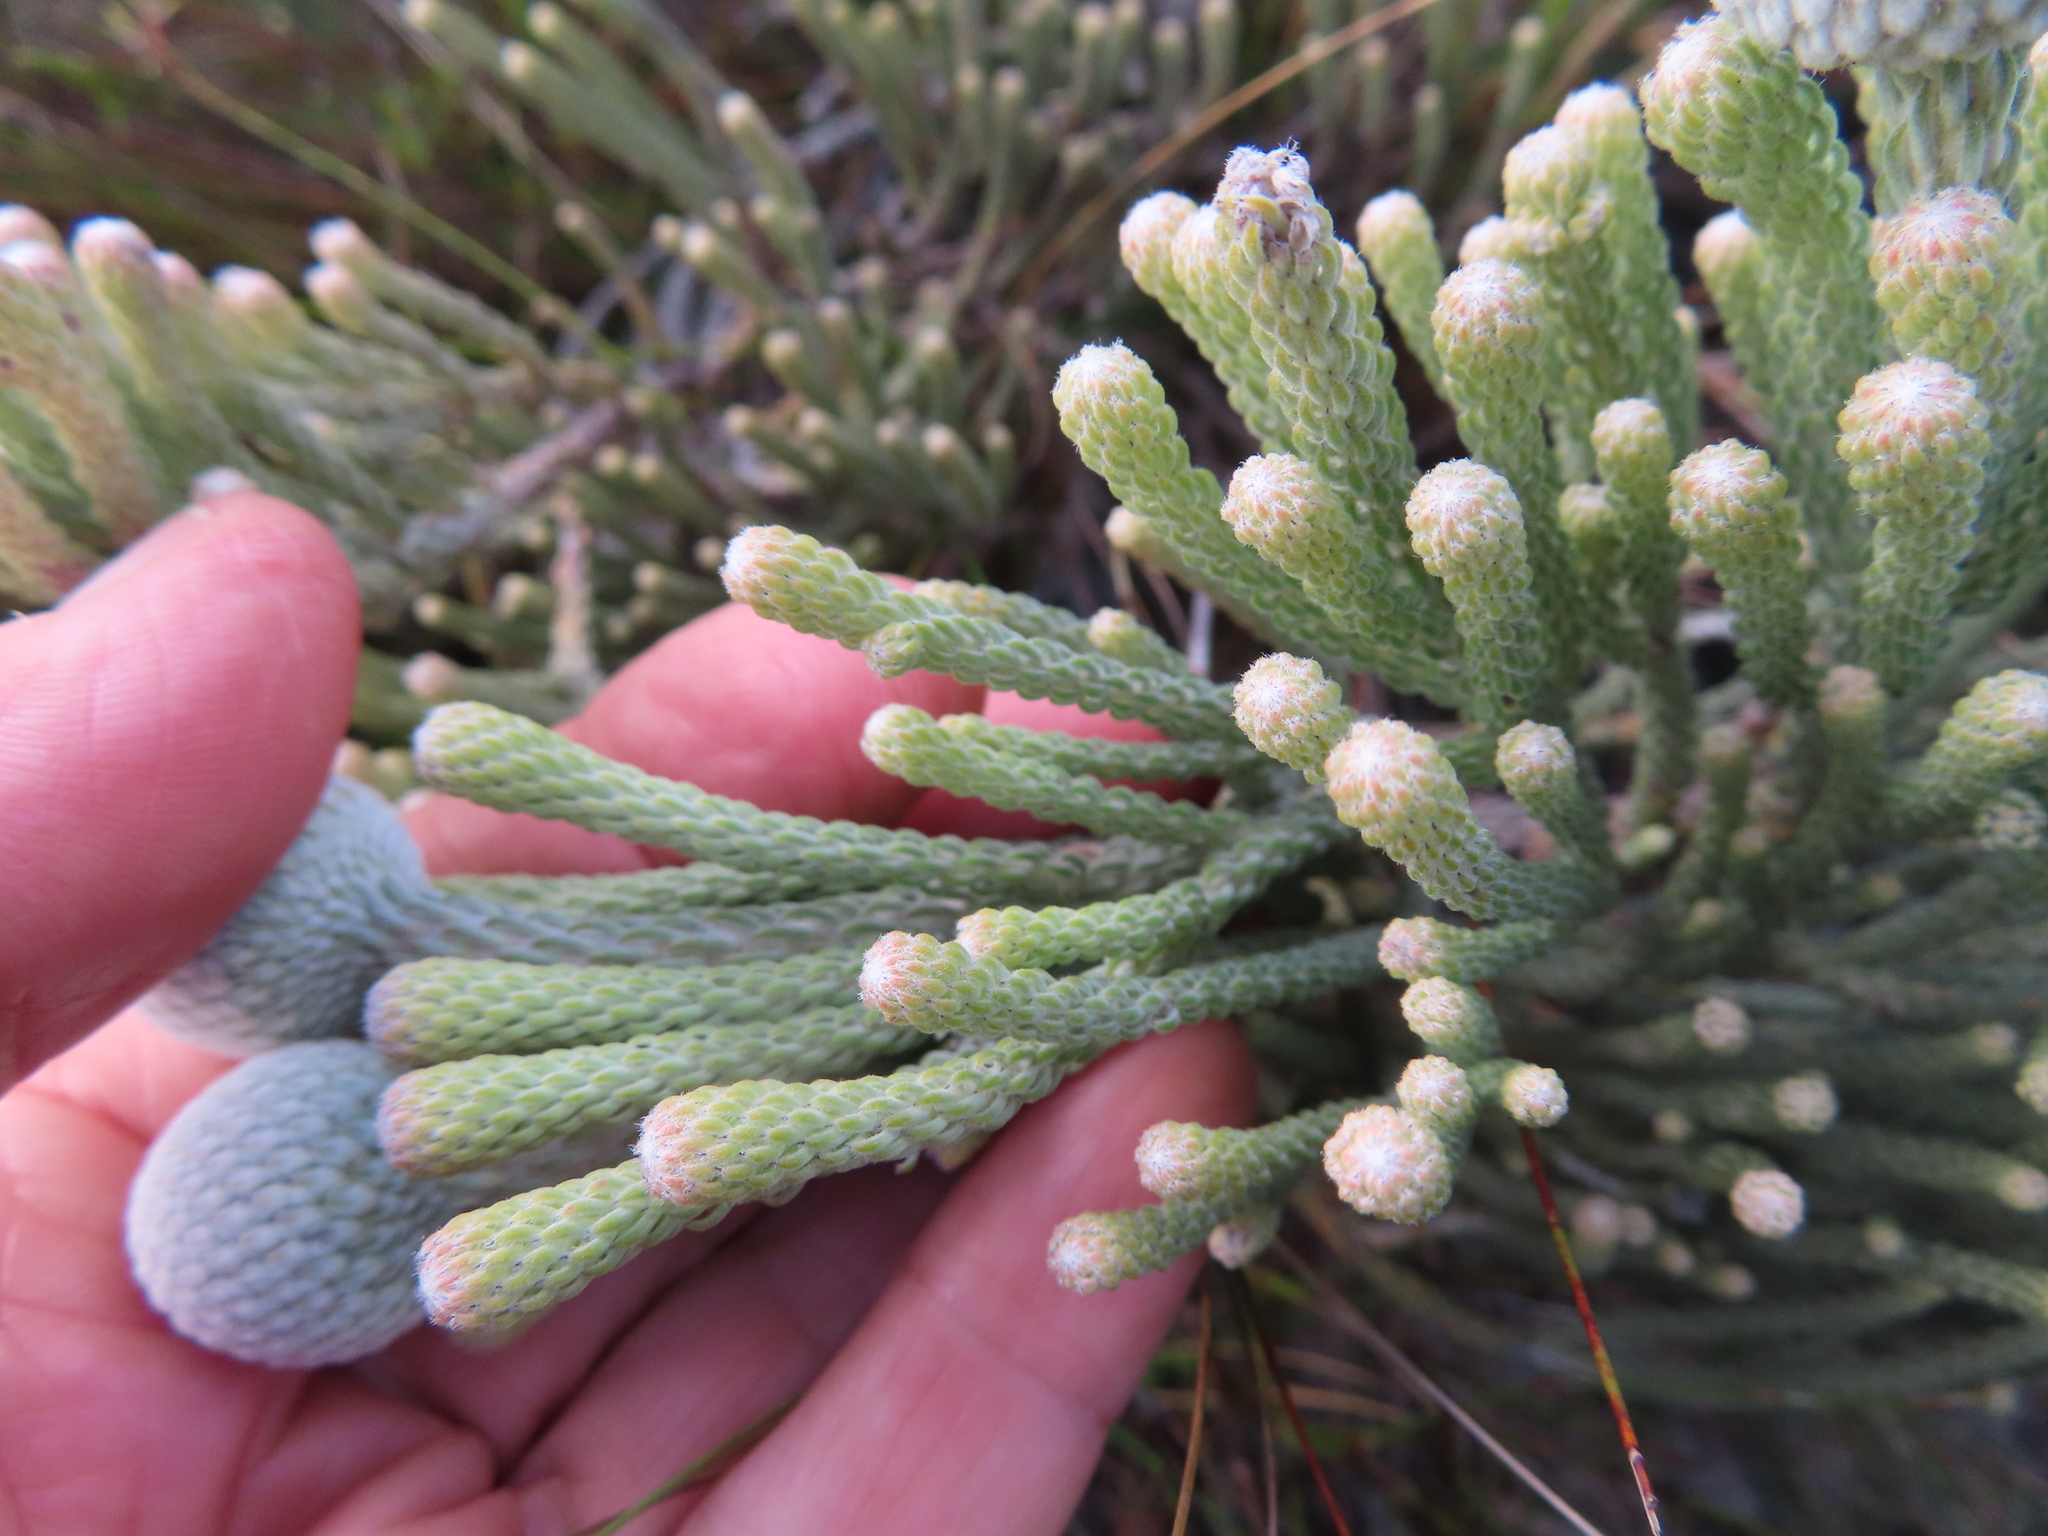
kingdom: Plantae
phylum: Tracheophyta
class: Magnoliopsida
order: Bruniales
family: Bruniaceae
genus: Brunia
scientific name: Brunia laevis
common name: Silver brunia
